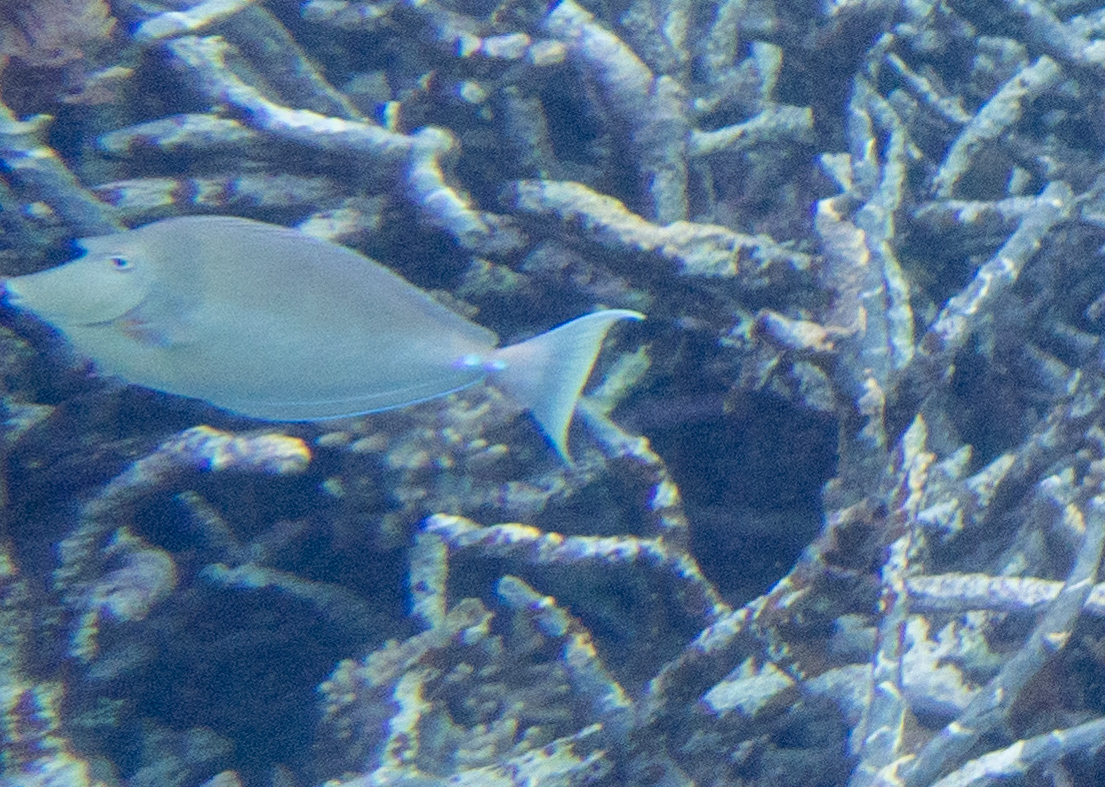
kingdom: Animalia
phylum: Chordata
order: Perciformes
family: Acanthuridae
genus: Naso
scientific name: Naso unicornis
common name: Bluespine unicornfish
